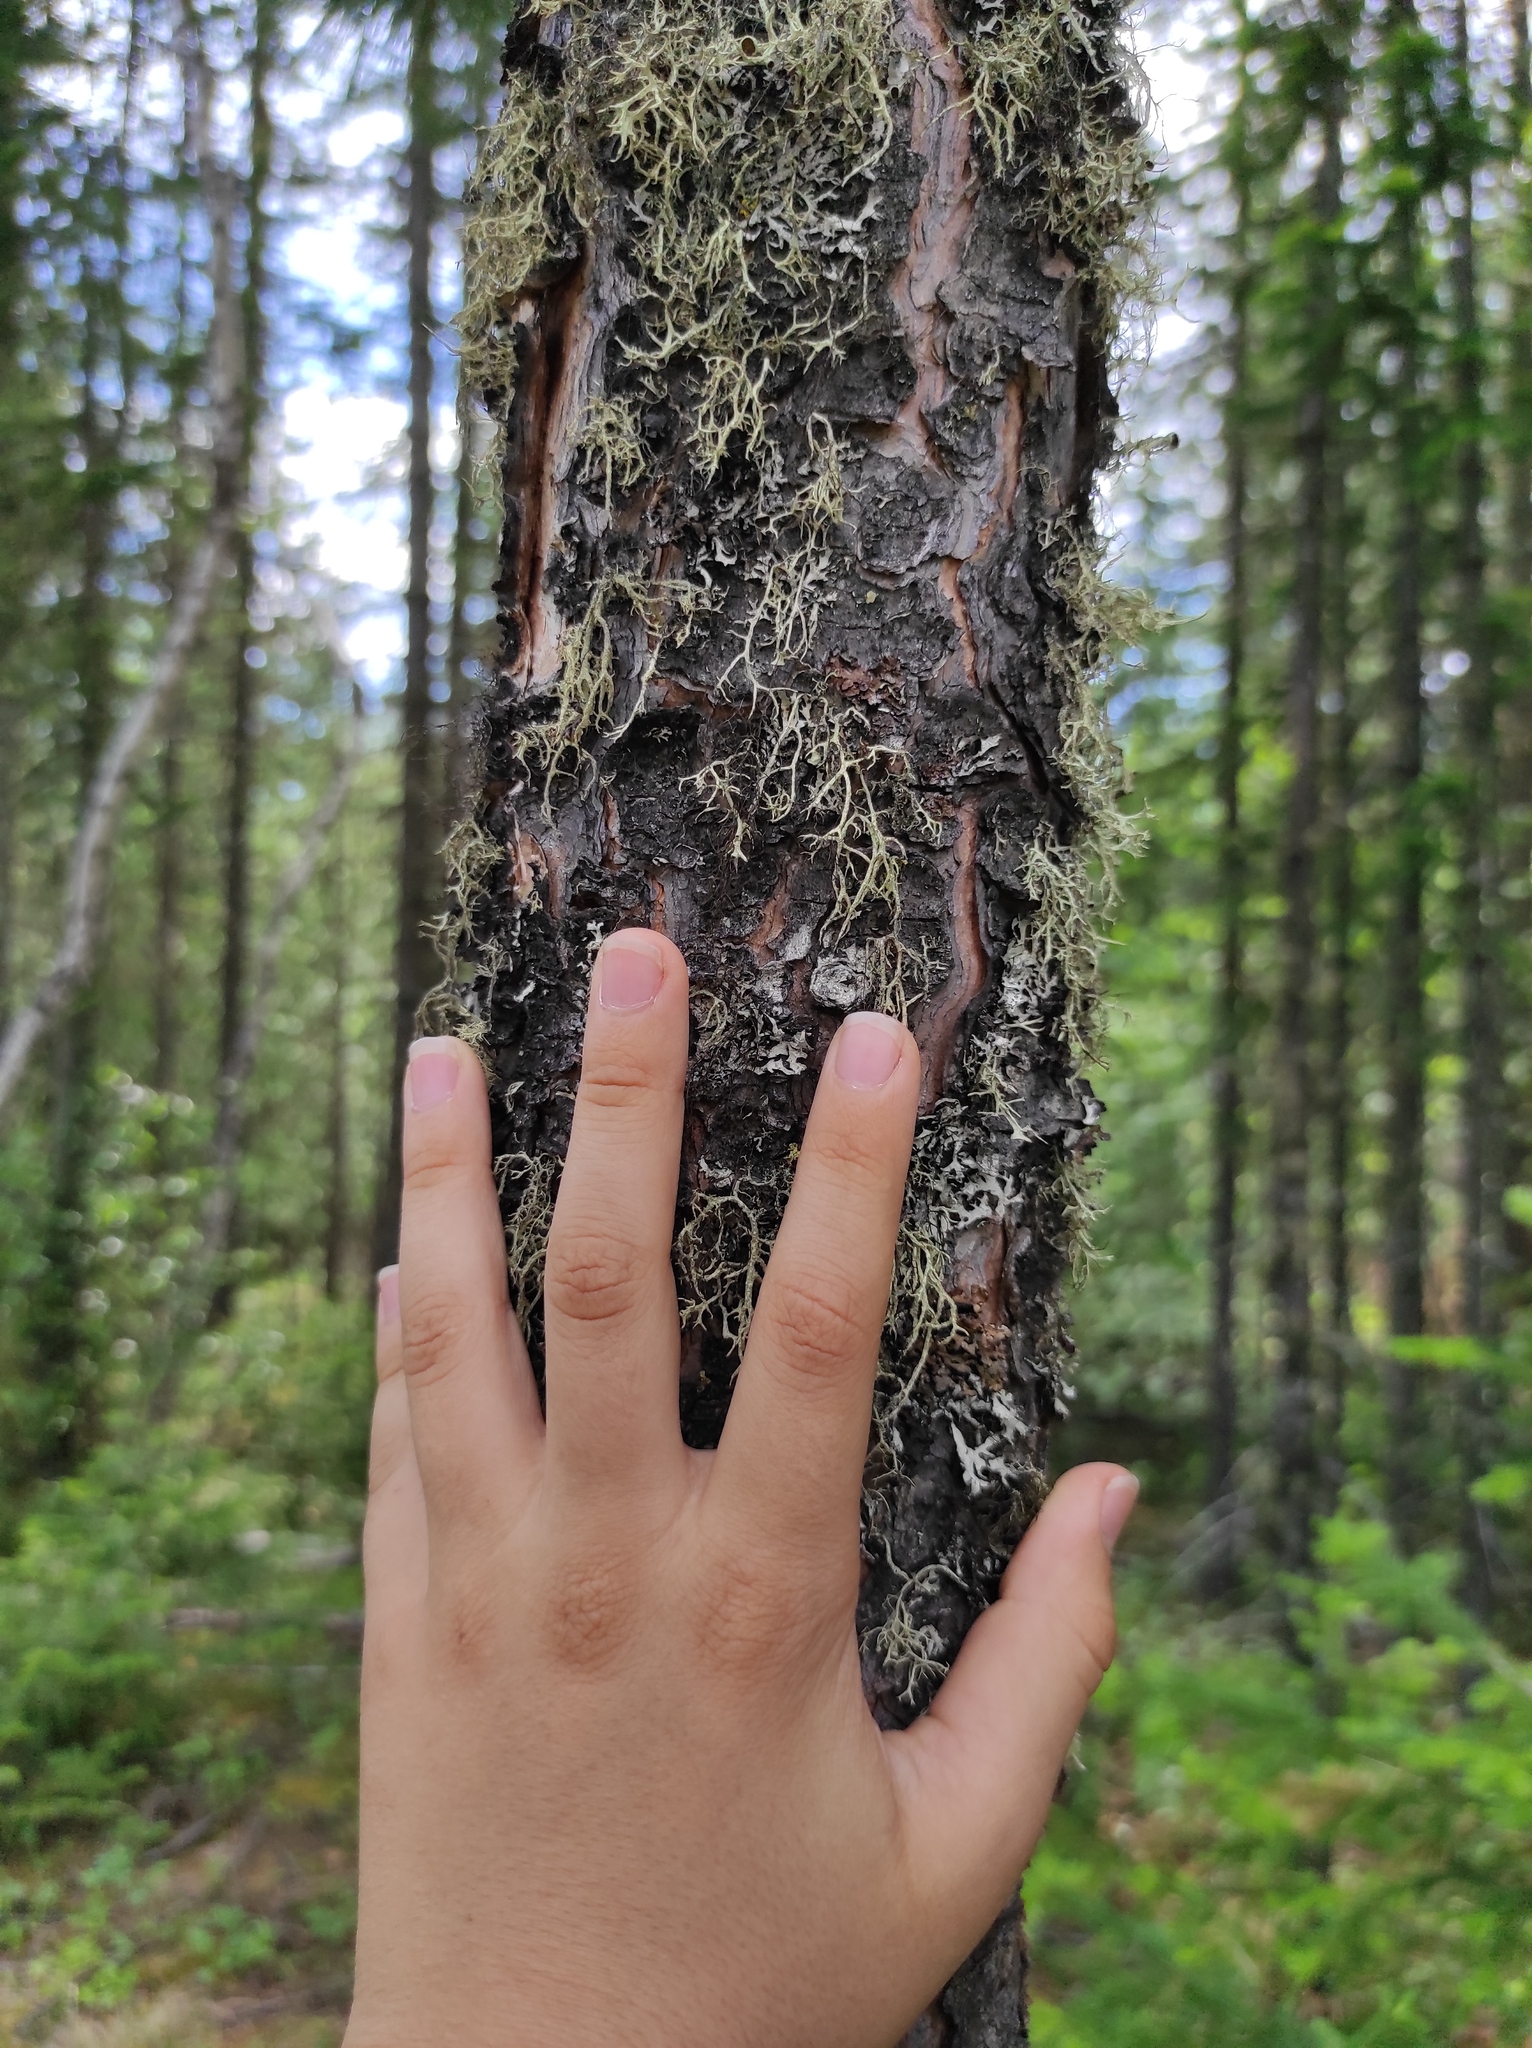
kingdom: Plantae
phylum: Tracheophyta
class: Pinopsida
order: Pinales
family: Pinaceae
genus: Pinus
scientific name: Pinus sylvestris
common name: Scots pine
